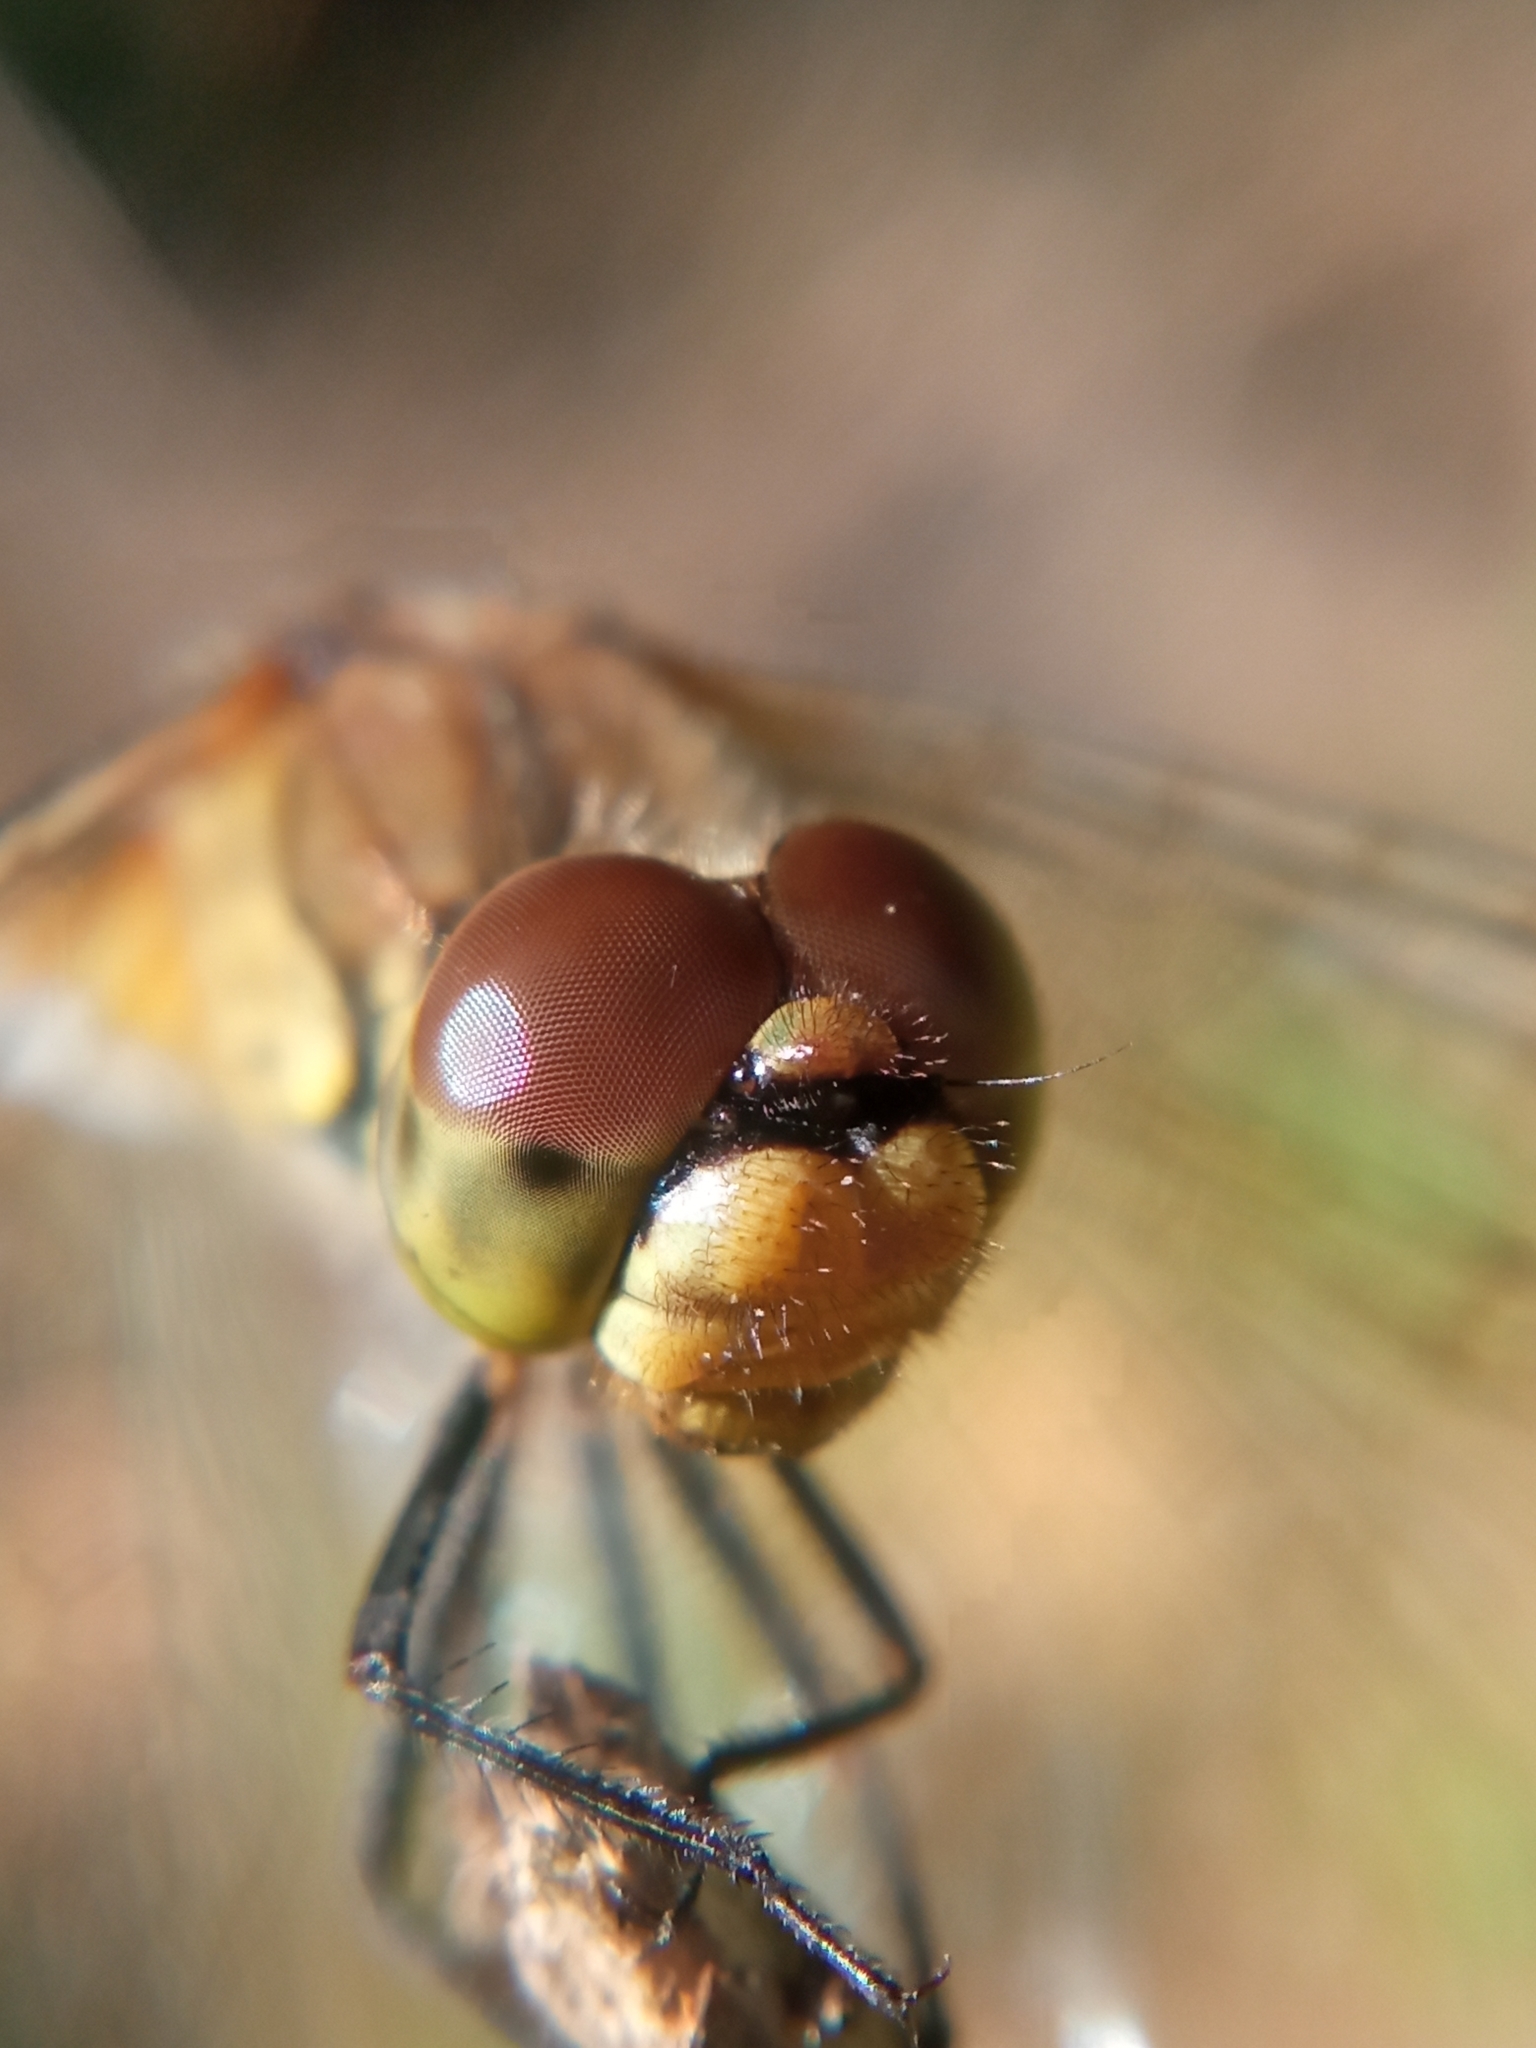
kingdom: Animalia
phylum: Arthropoda
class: Insecta
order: Odonata
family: Libellulidae
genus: Sympetrum
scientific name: Sympetrum sanguineum
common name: Ruddy darter
